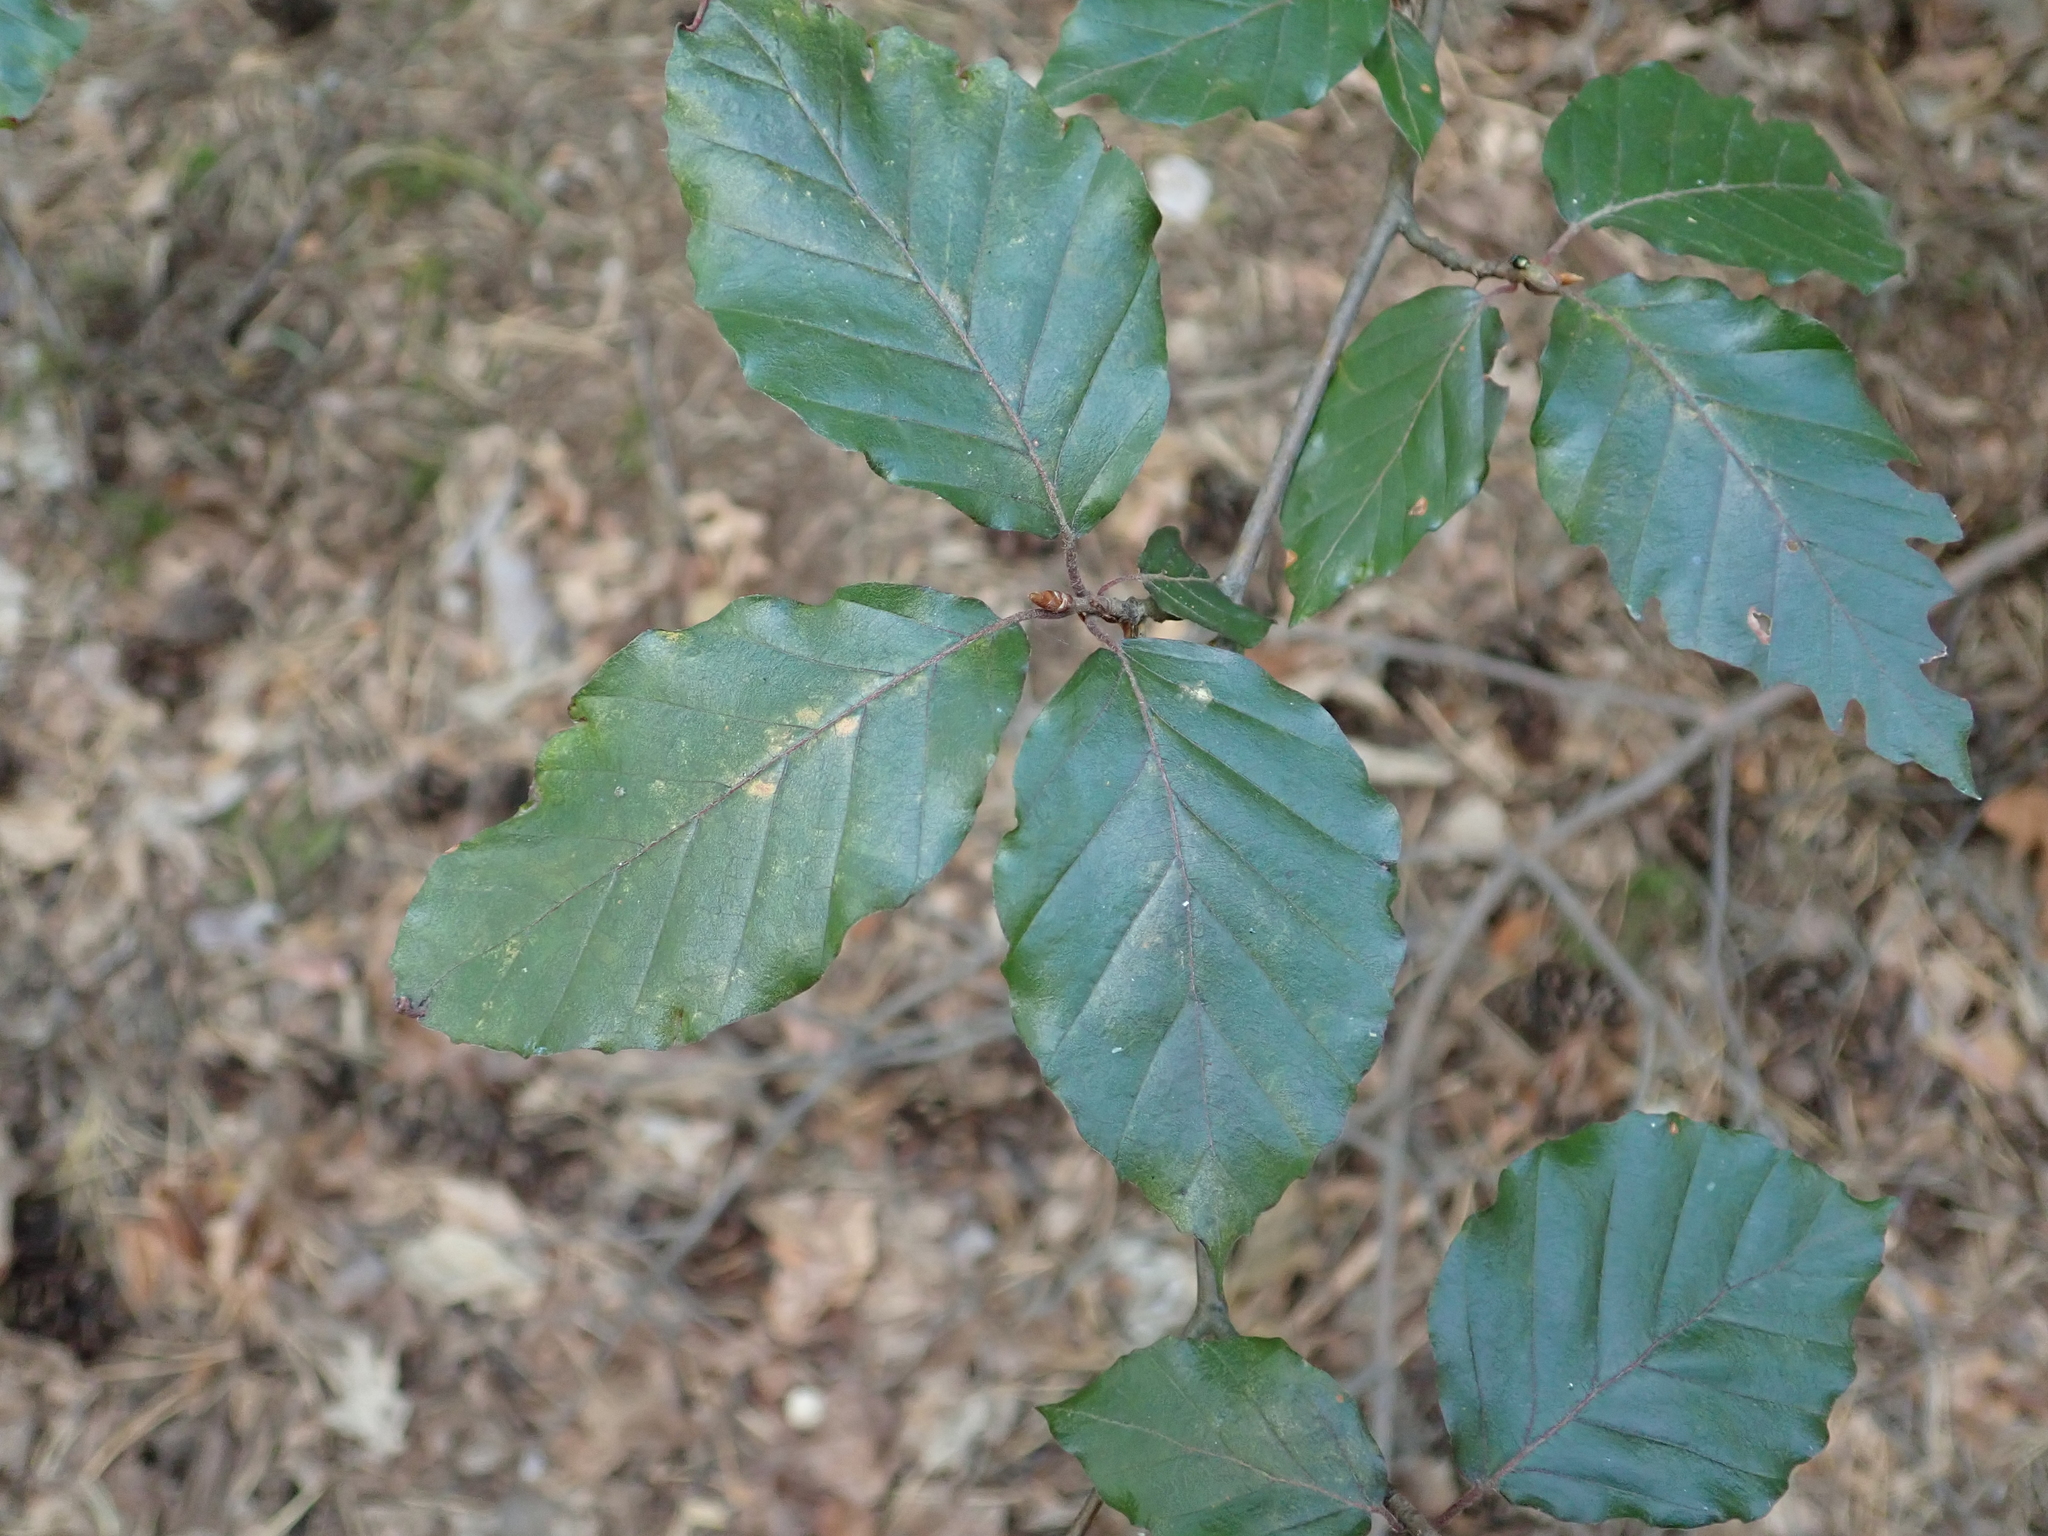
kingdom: Plantae
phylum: Tracheophyta
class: Magnoliopsida
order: Fagales
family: Fagaceae
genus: Fagus
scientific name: Fagus sylvatica
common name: Beech
